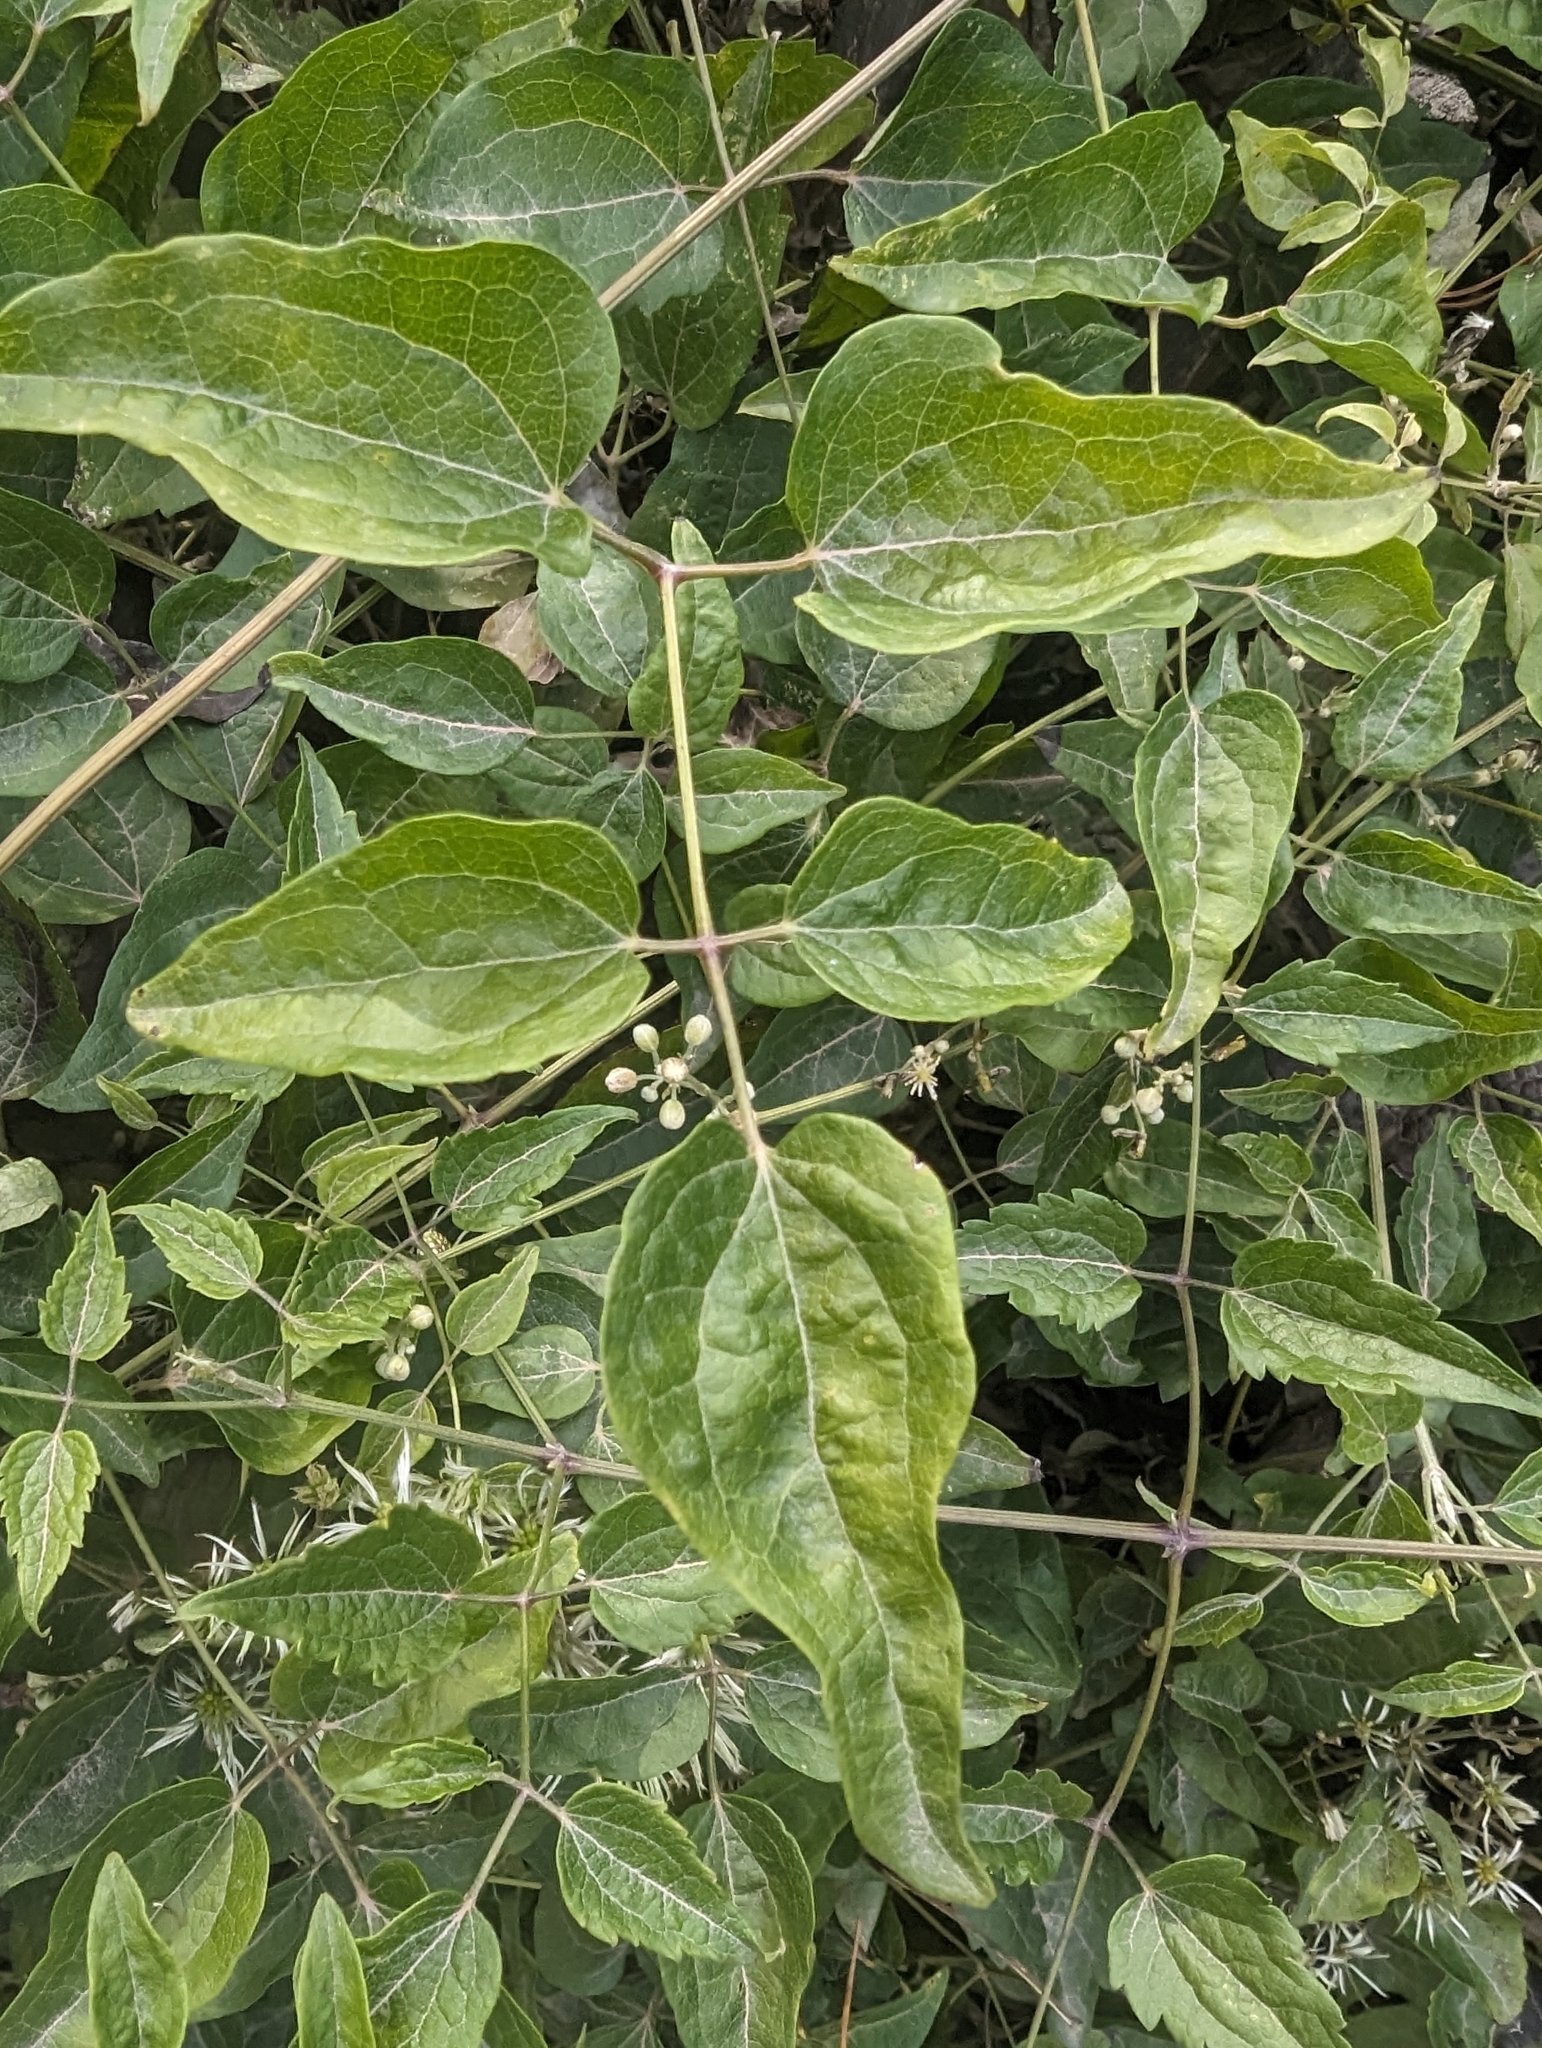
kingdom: Plantae
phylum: Tracheophyta
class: Magnoliopsida
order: Ranunculales
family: Ranunculaceae
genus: Clematis
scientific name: Clematis vitalba
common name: Evergreen clematis
